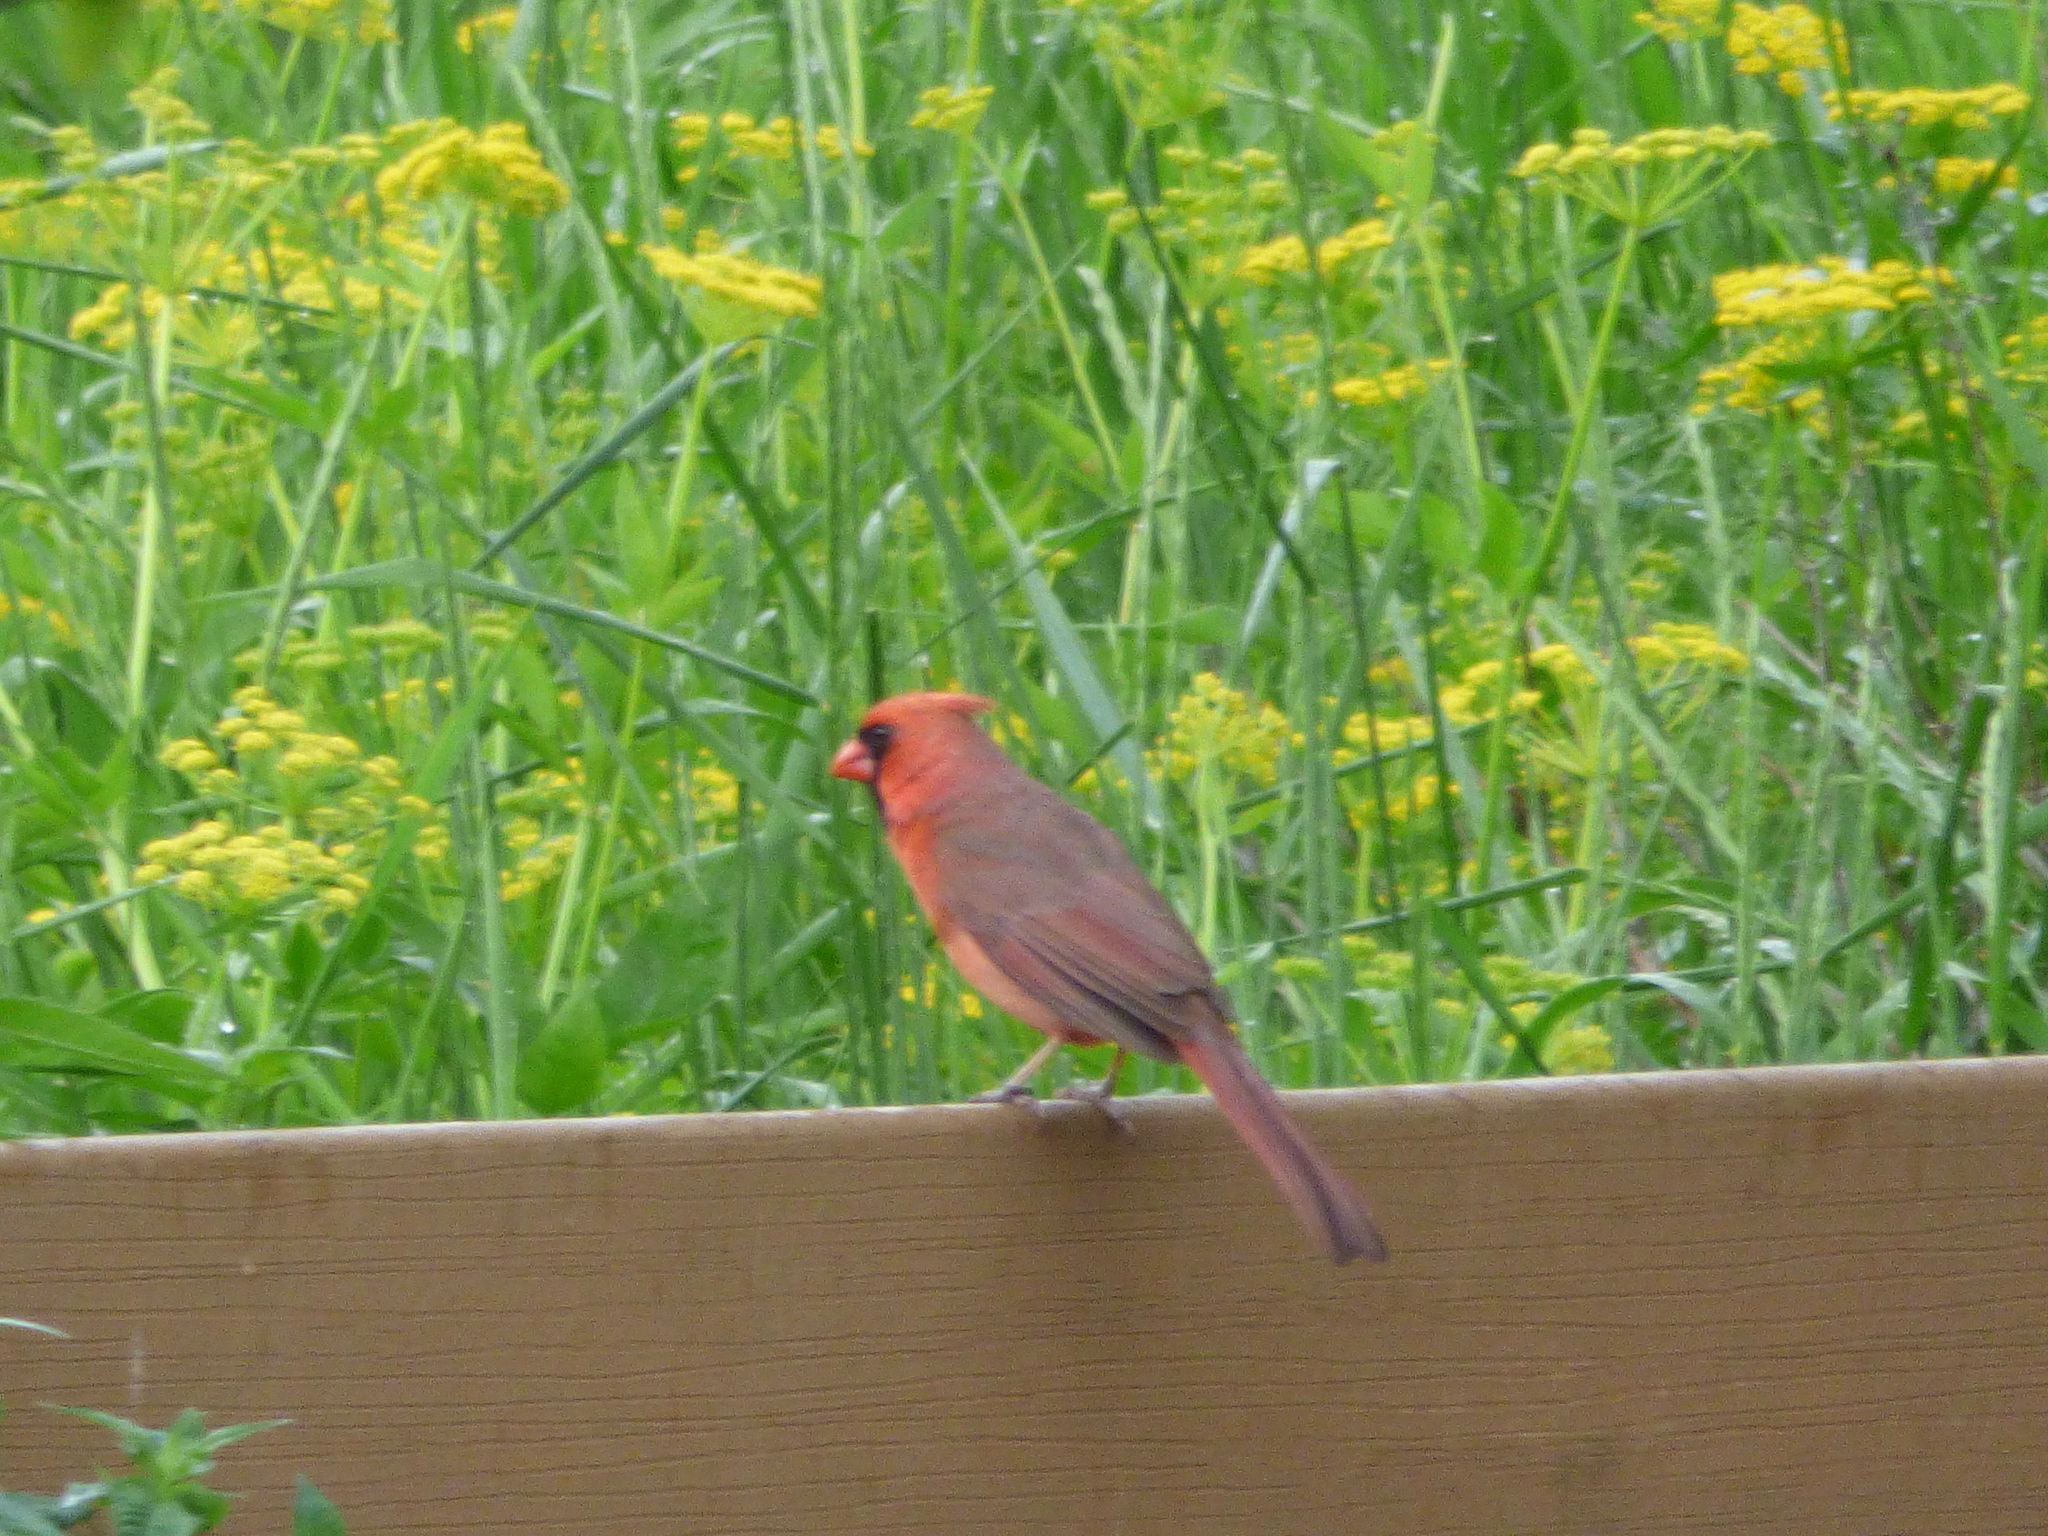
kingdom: Animalia
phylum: Chordata
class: Aves
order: Passeriformes
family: Cardinalidae
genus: Cardinalis
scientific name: Cardinalis cardinalis
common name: Northern cardinal
